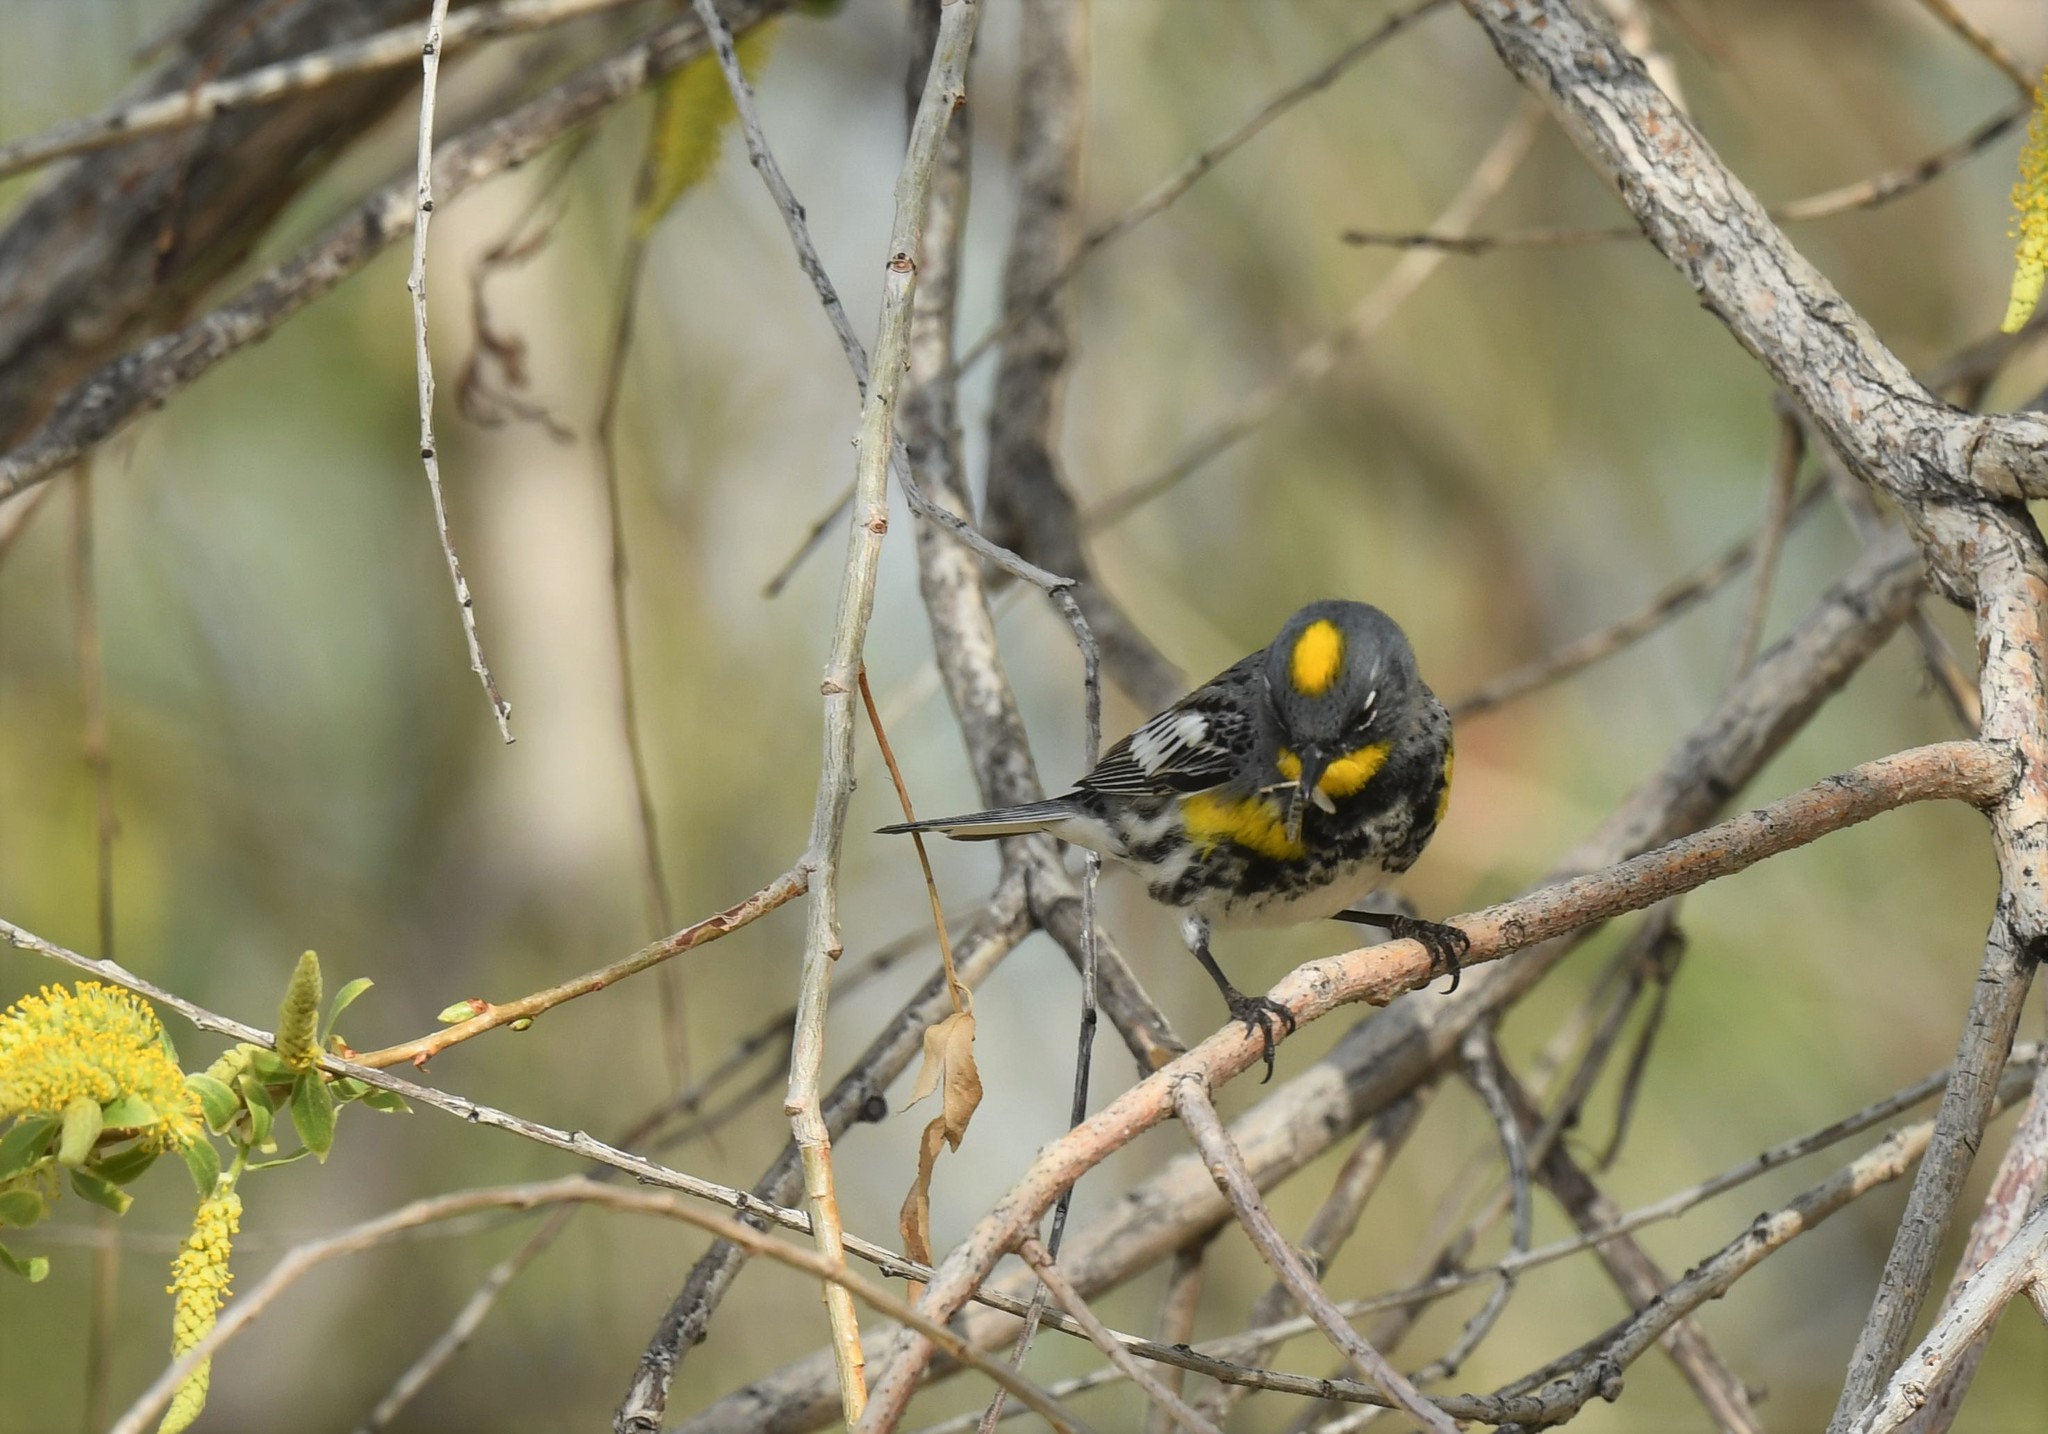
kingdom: Animalia
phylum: Chordata
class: Aves
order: Passeriformes
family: Parulidae
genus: Setophaga
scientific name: Setophaga auduboni
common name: Audubon's warbler
